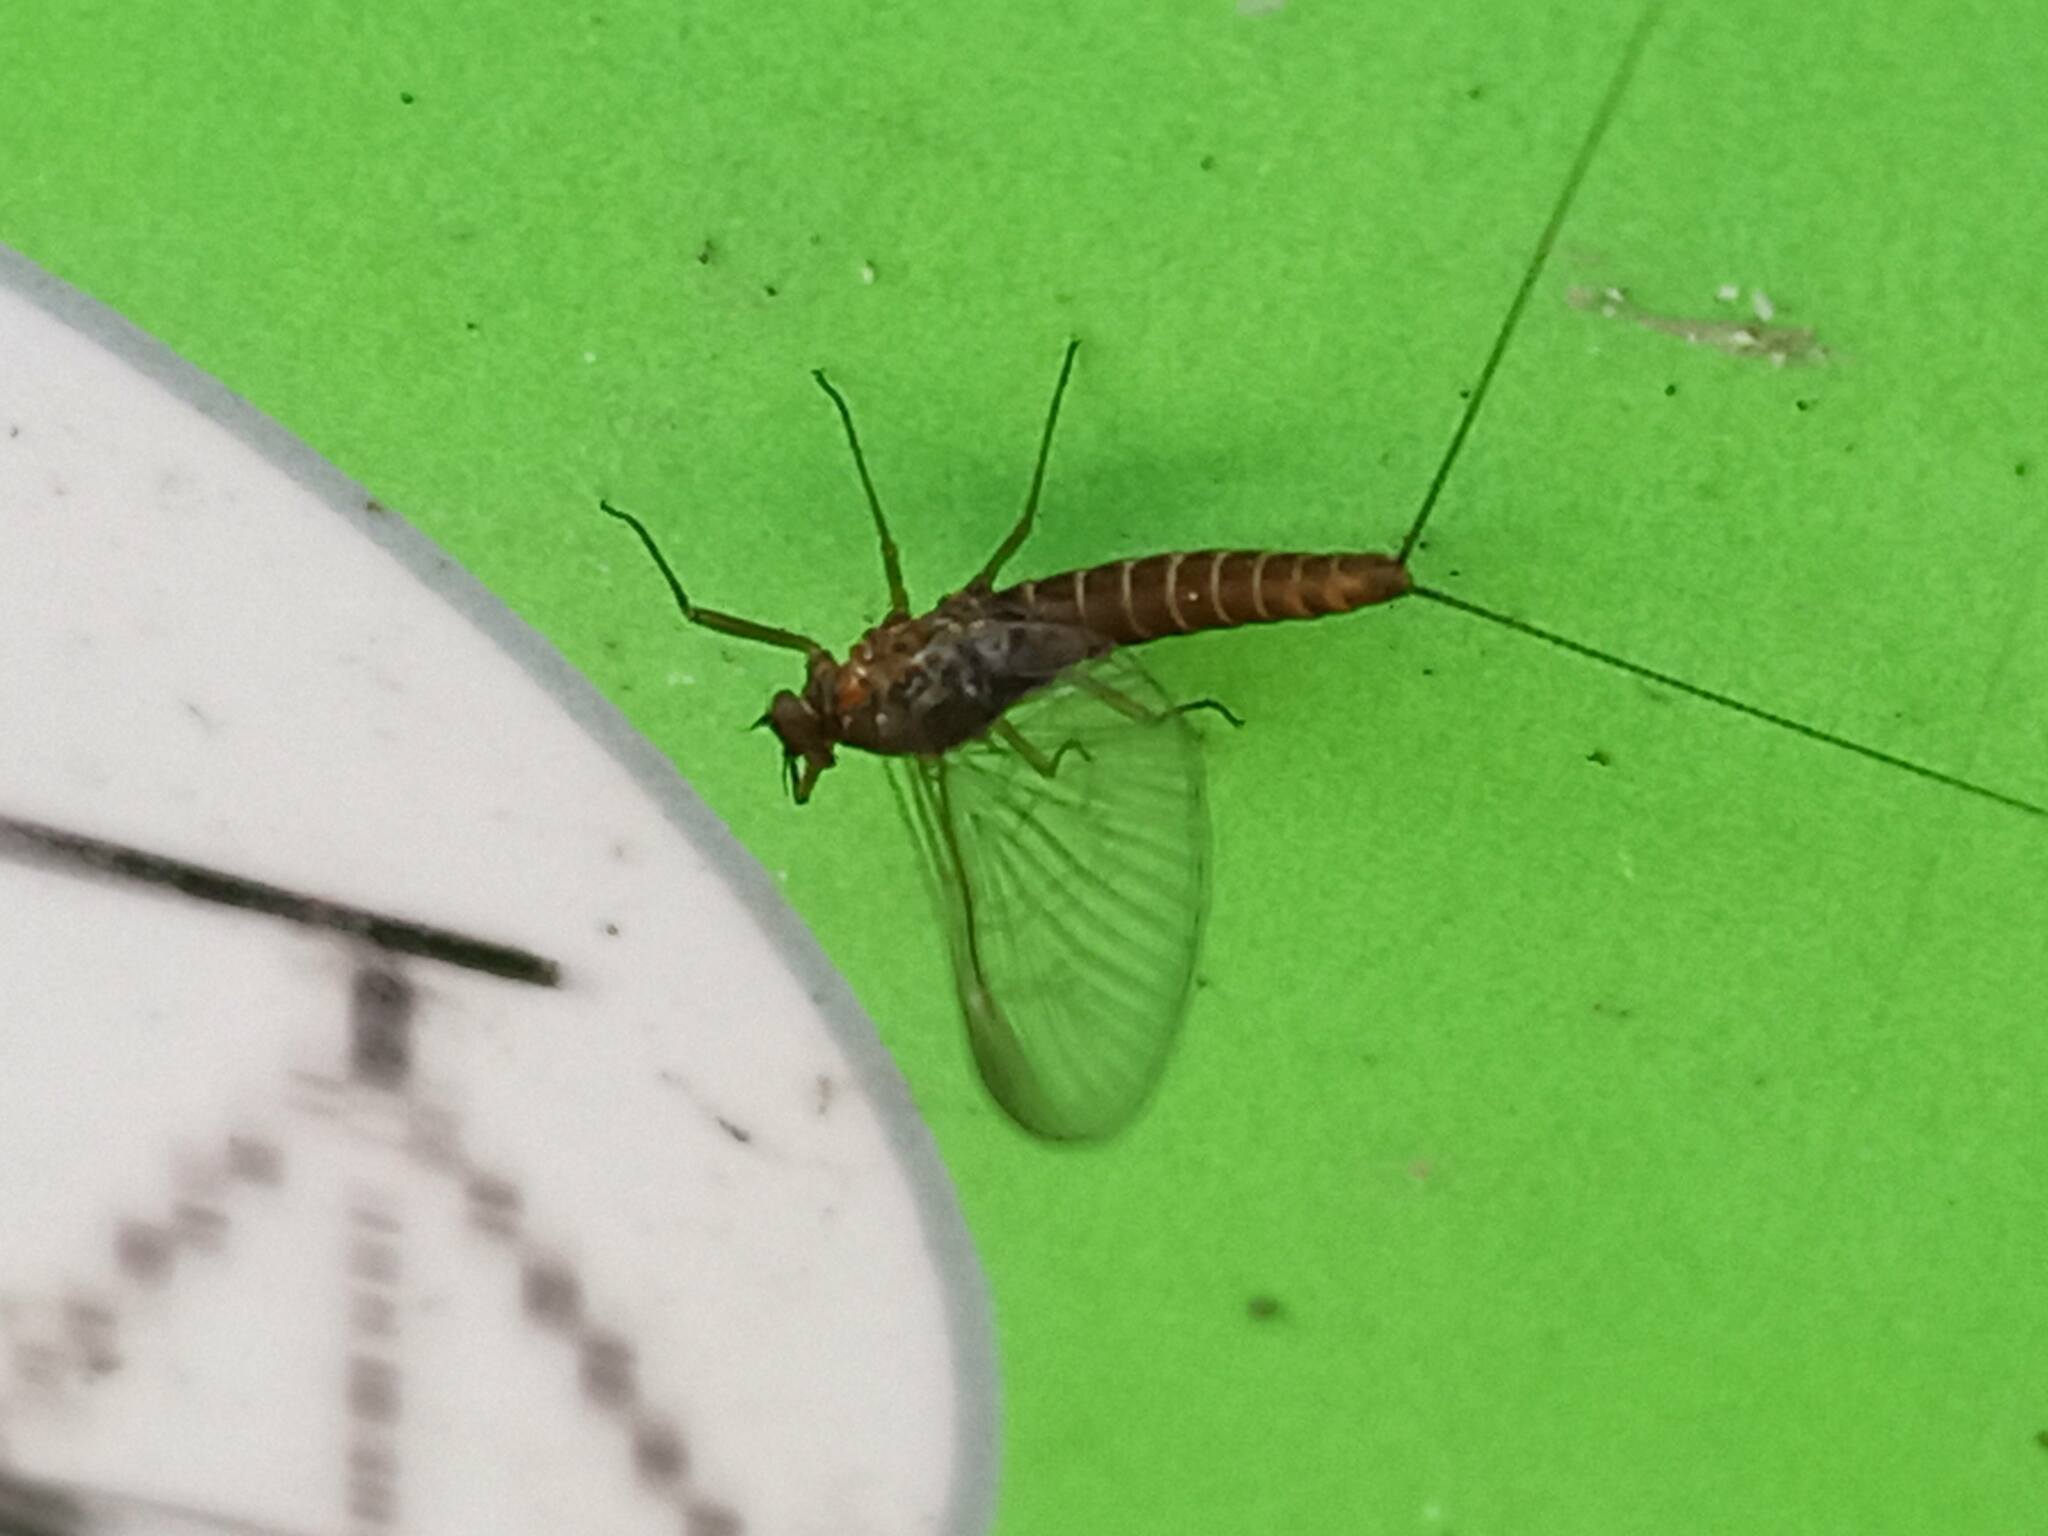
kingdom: Animalia
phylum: Arthropoda
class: Insecta
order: Ephemeroptera
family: Baetidae
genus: Baetis
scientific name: Baetis rhodani
